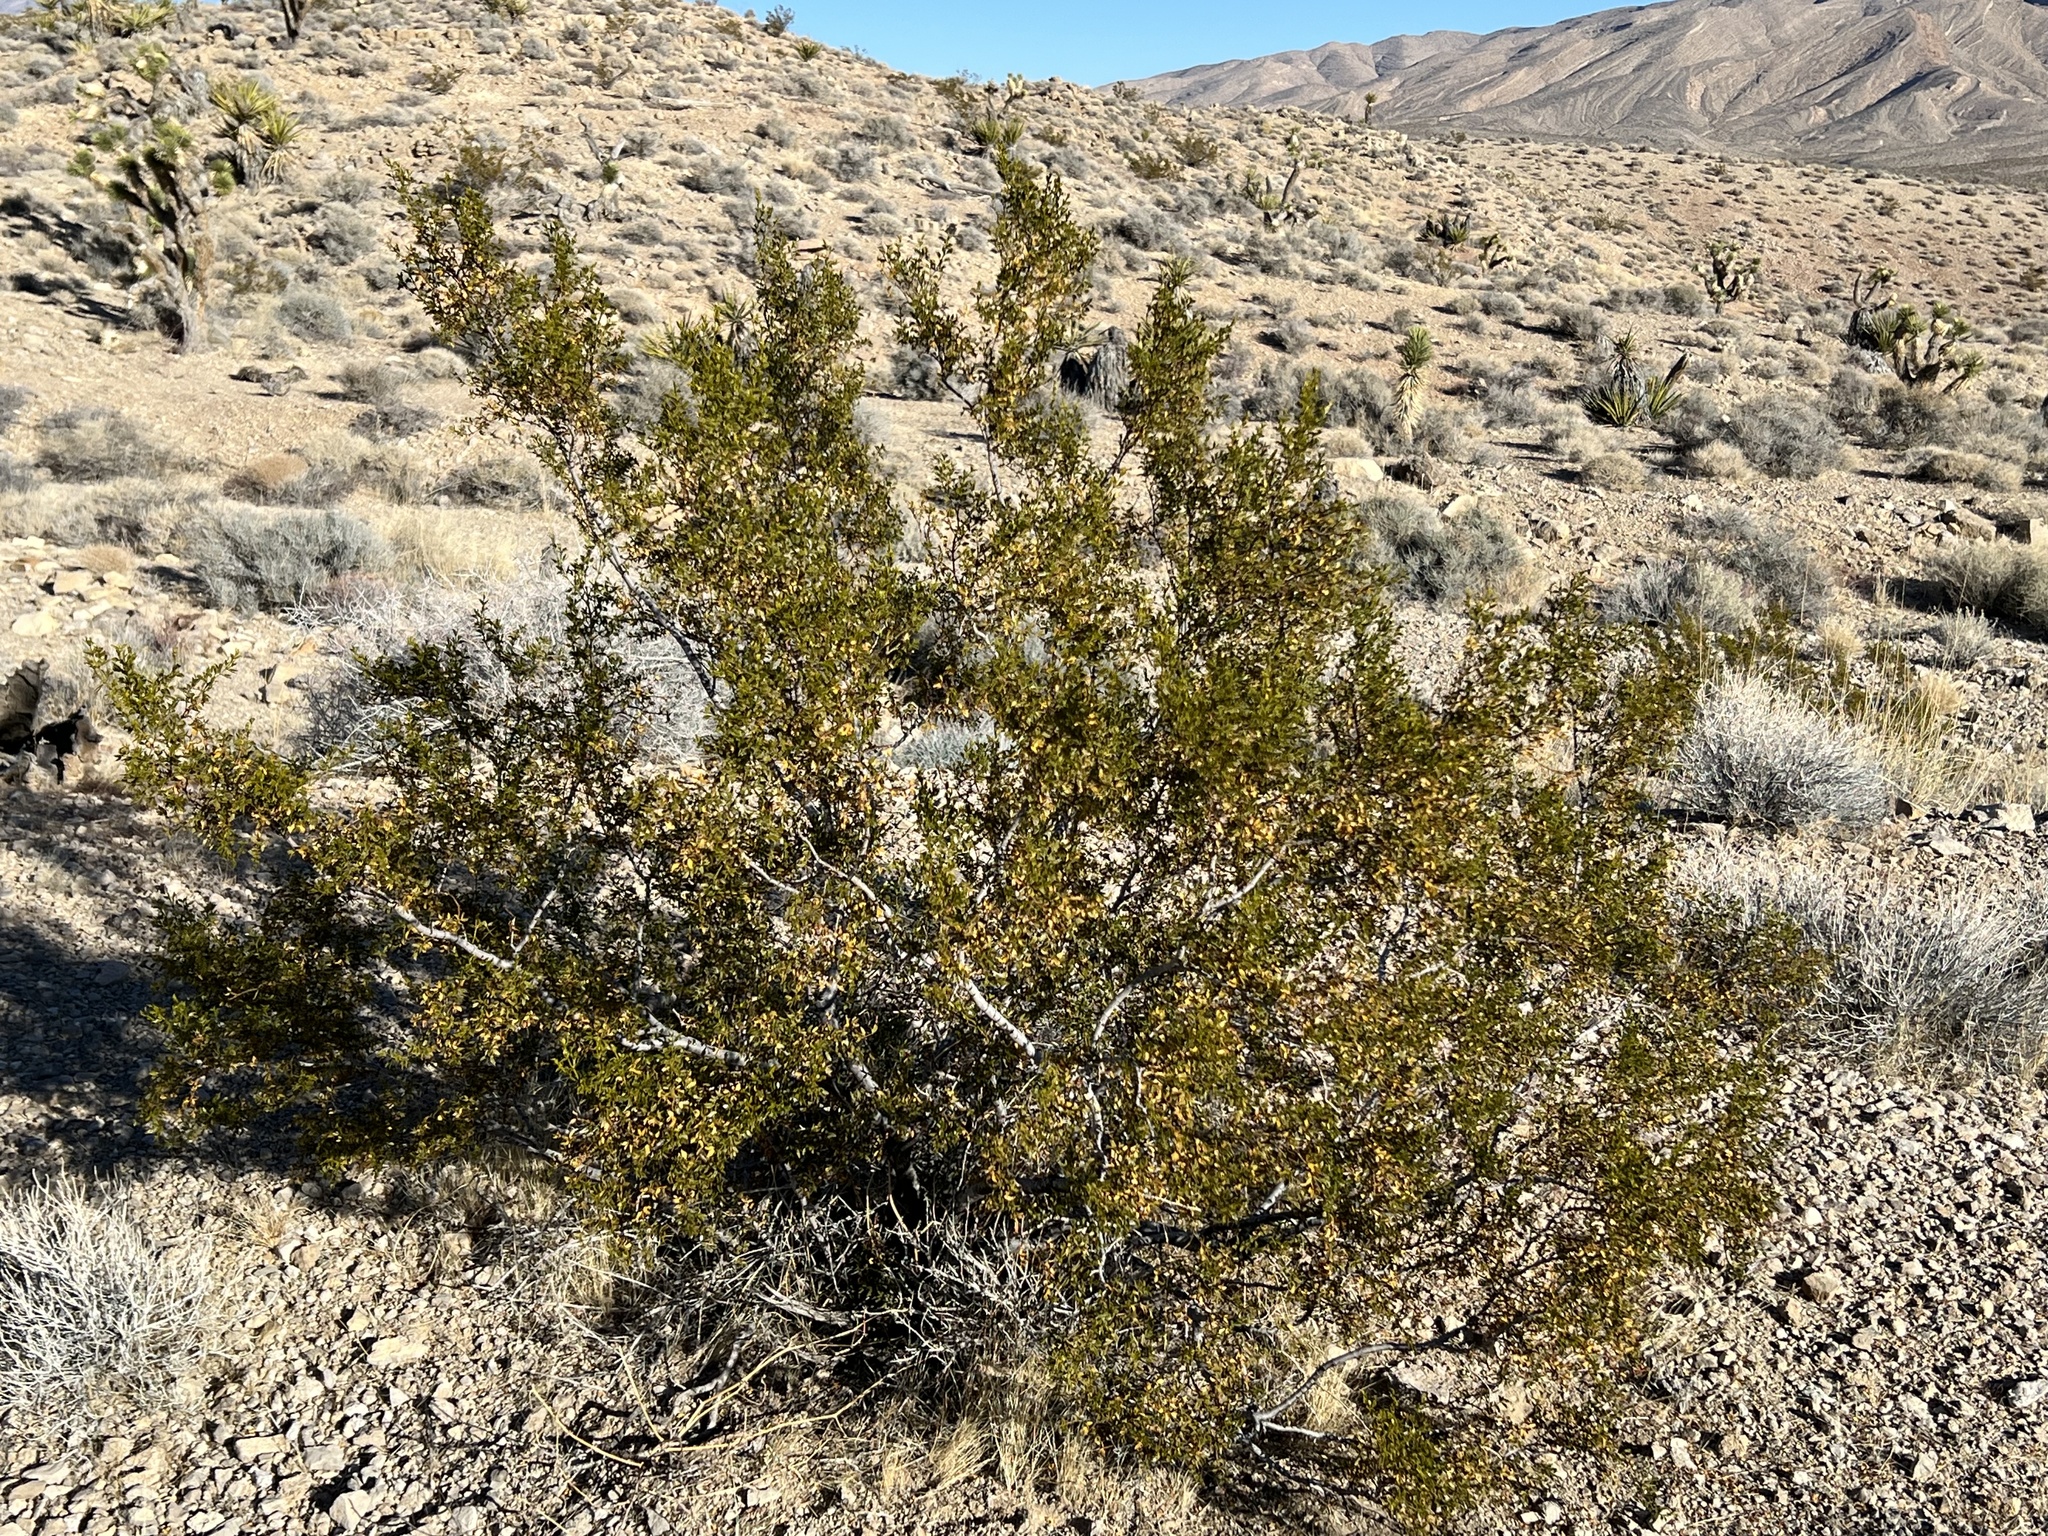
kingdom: Plantae
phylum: Tracheophyta
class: Magnoliopsida
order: Zygophyllales
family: Zygophyllaceae
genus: Larrea
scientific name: Larrea tridentata
